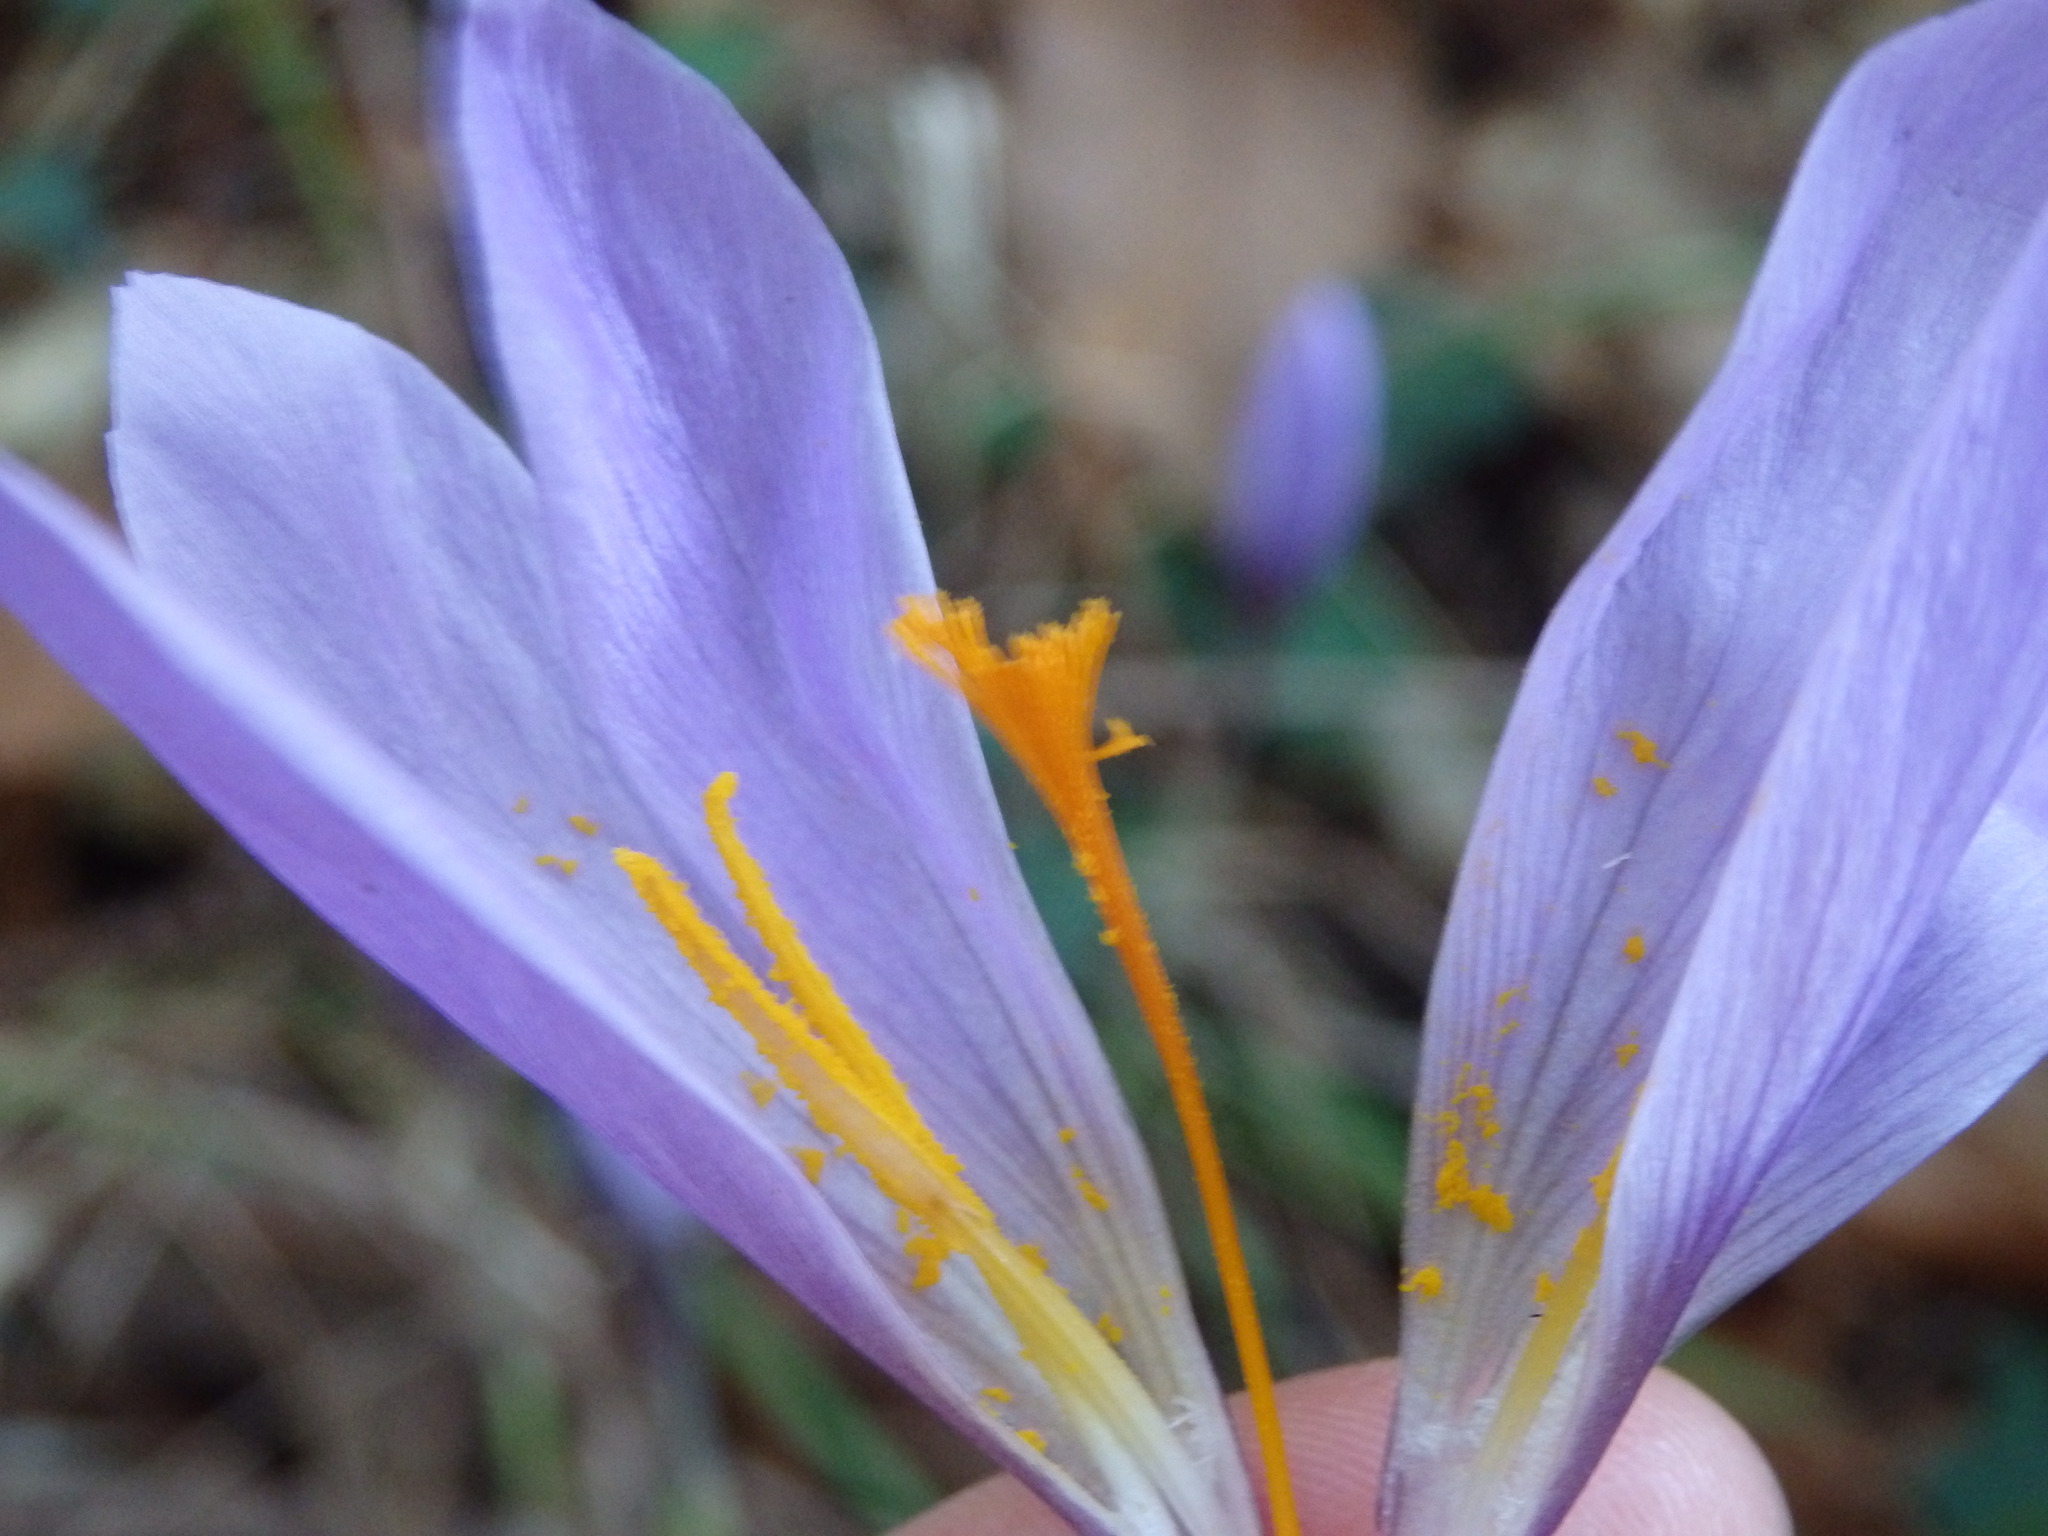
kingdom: Plantae
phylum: Tracheophyta
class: Liliopsida
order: Asparagales
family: Iridaceae
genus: Crocus
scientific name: Crocus serotinus
